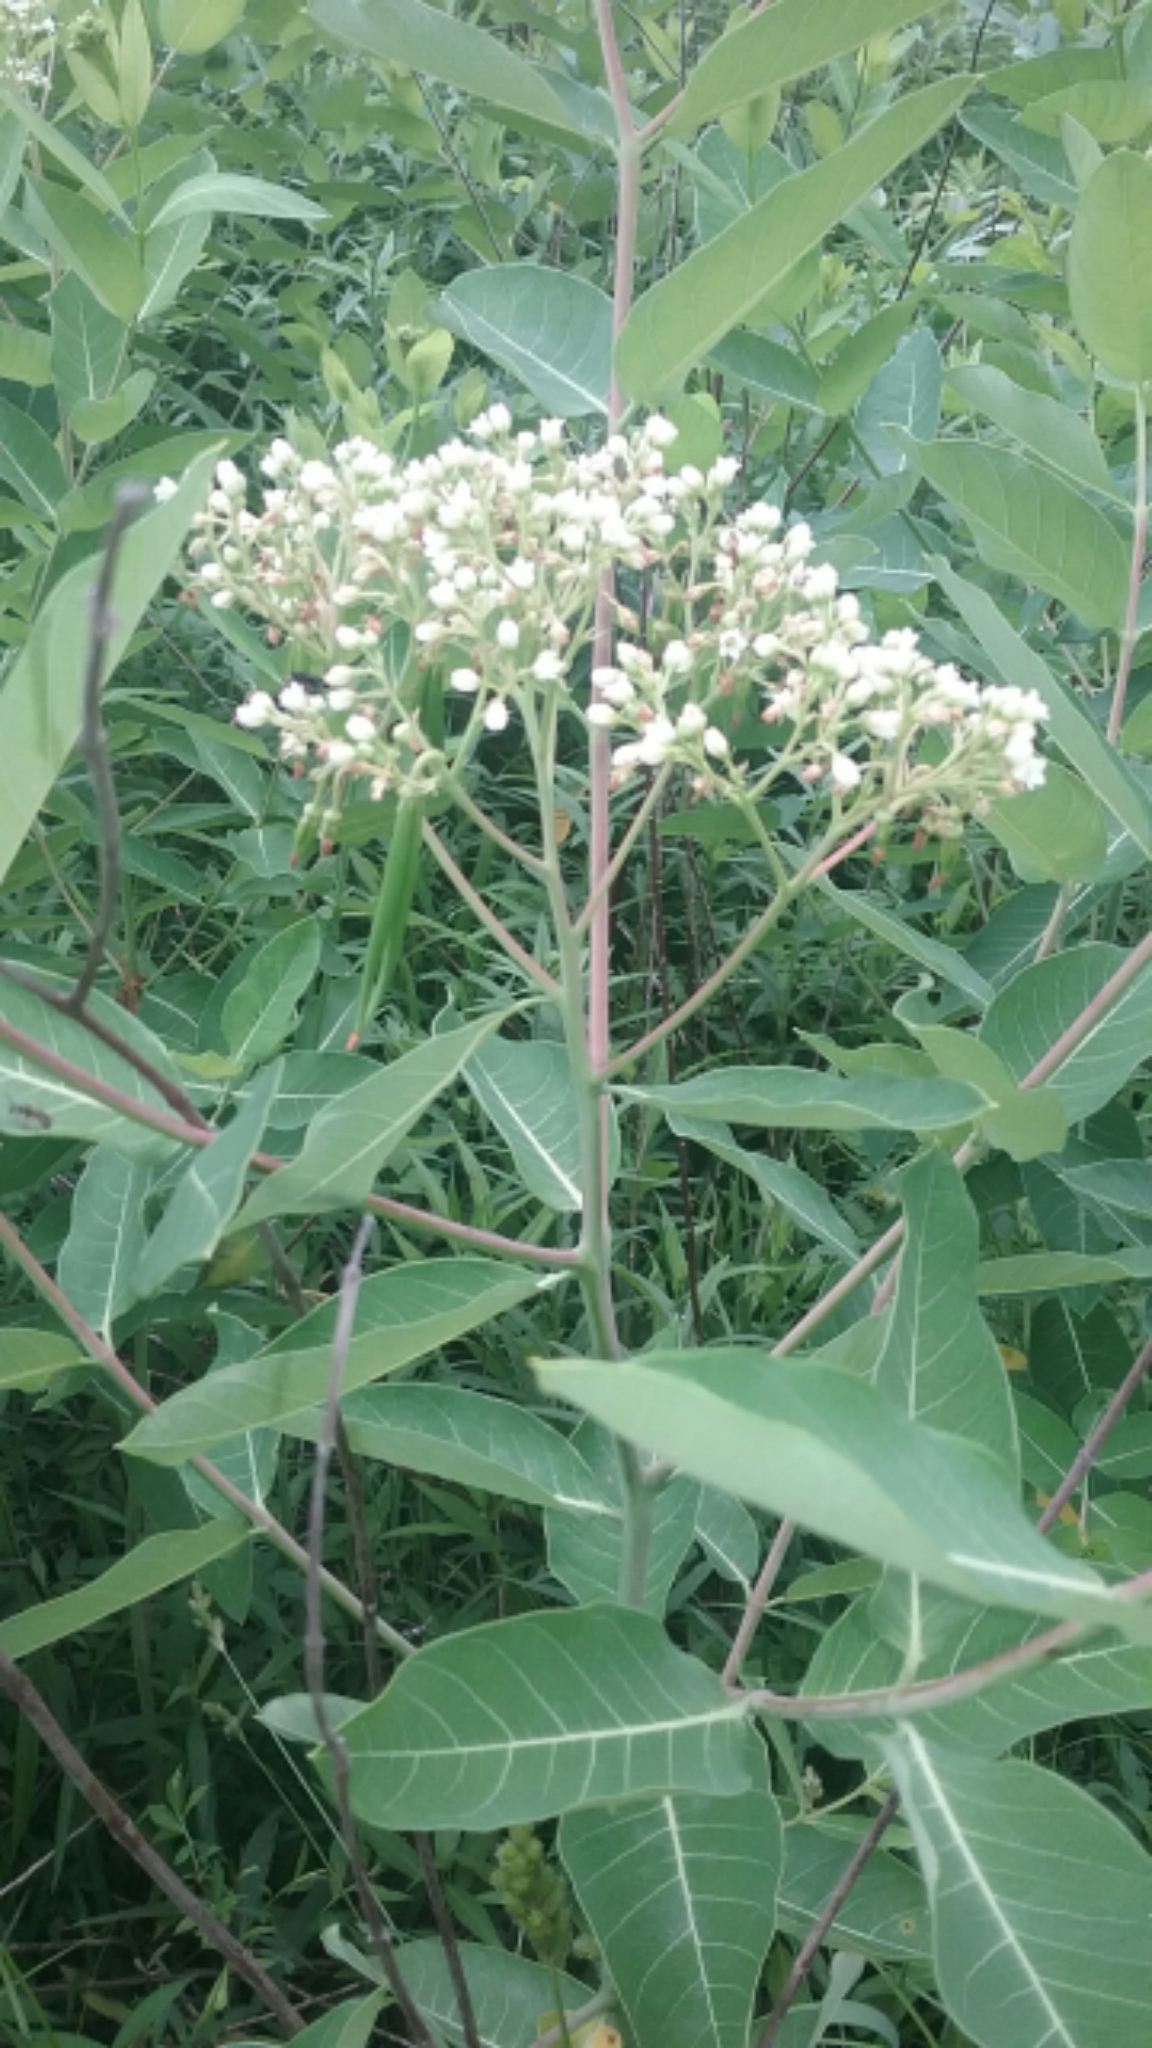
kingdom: Plantae
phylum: Tracheophyta
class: Magnoliopsida
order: Gentianales
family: Apocynaceae
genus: Apocynum
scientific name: Apocynum cannabinum
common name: Hemp dogbane
